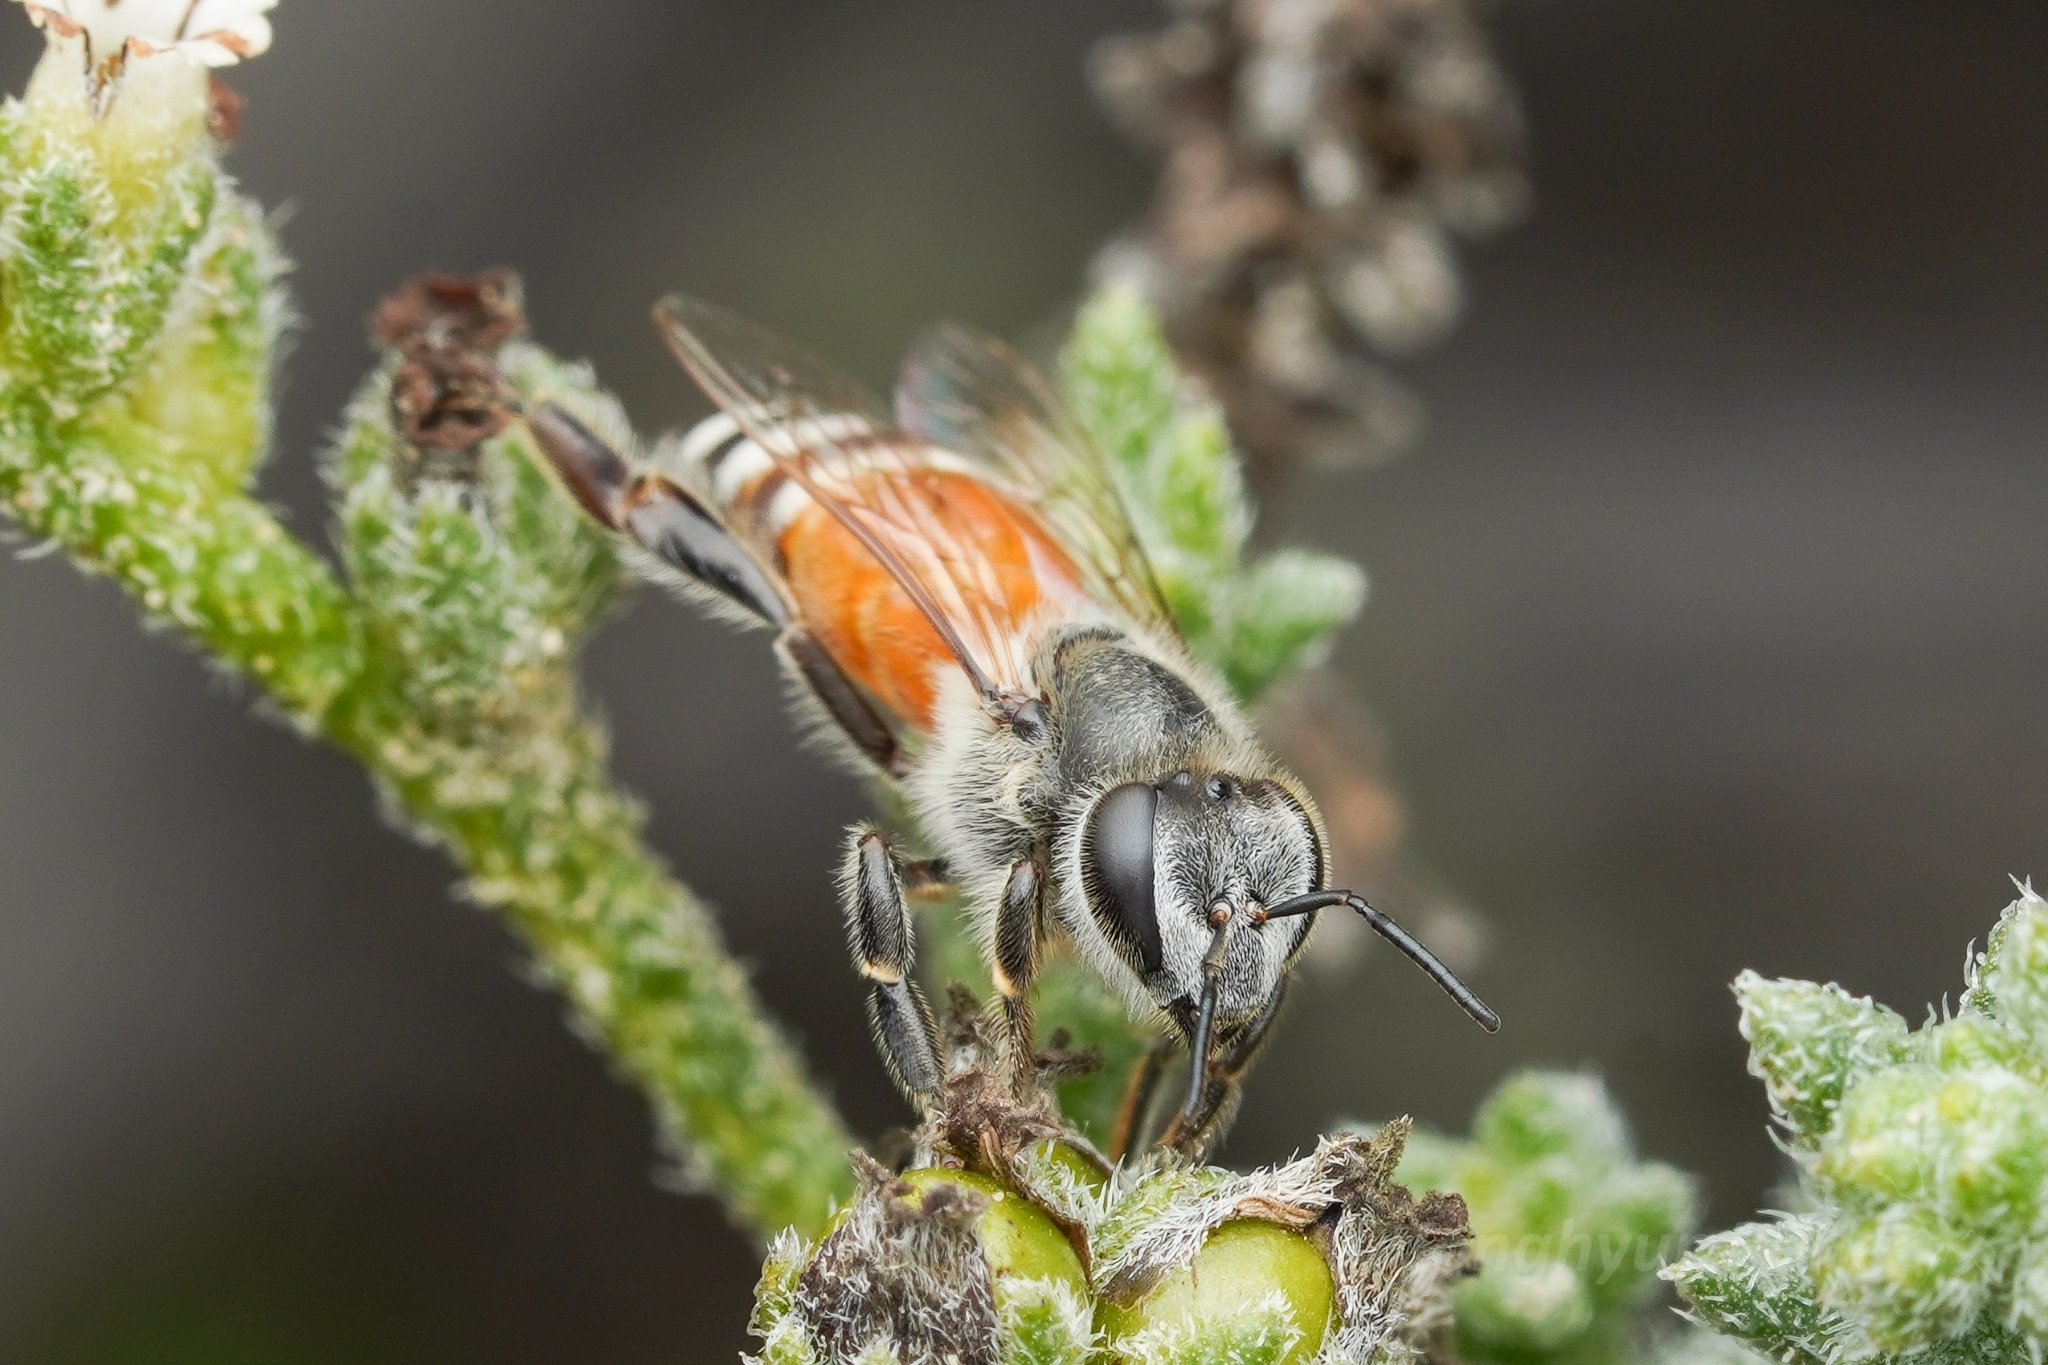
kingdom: Animalia
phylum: Arthropoda
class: Insecta
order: Hymenoptera
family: Apidae
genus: Apis
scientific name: Apis florea
